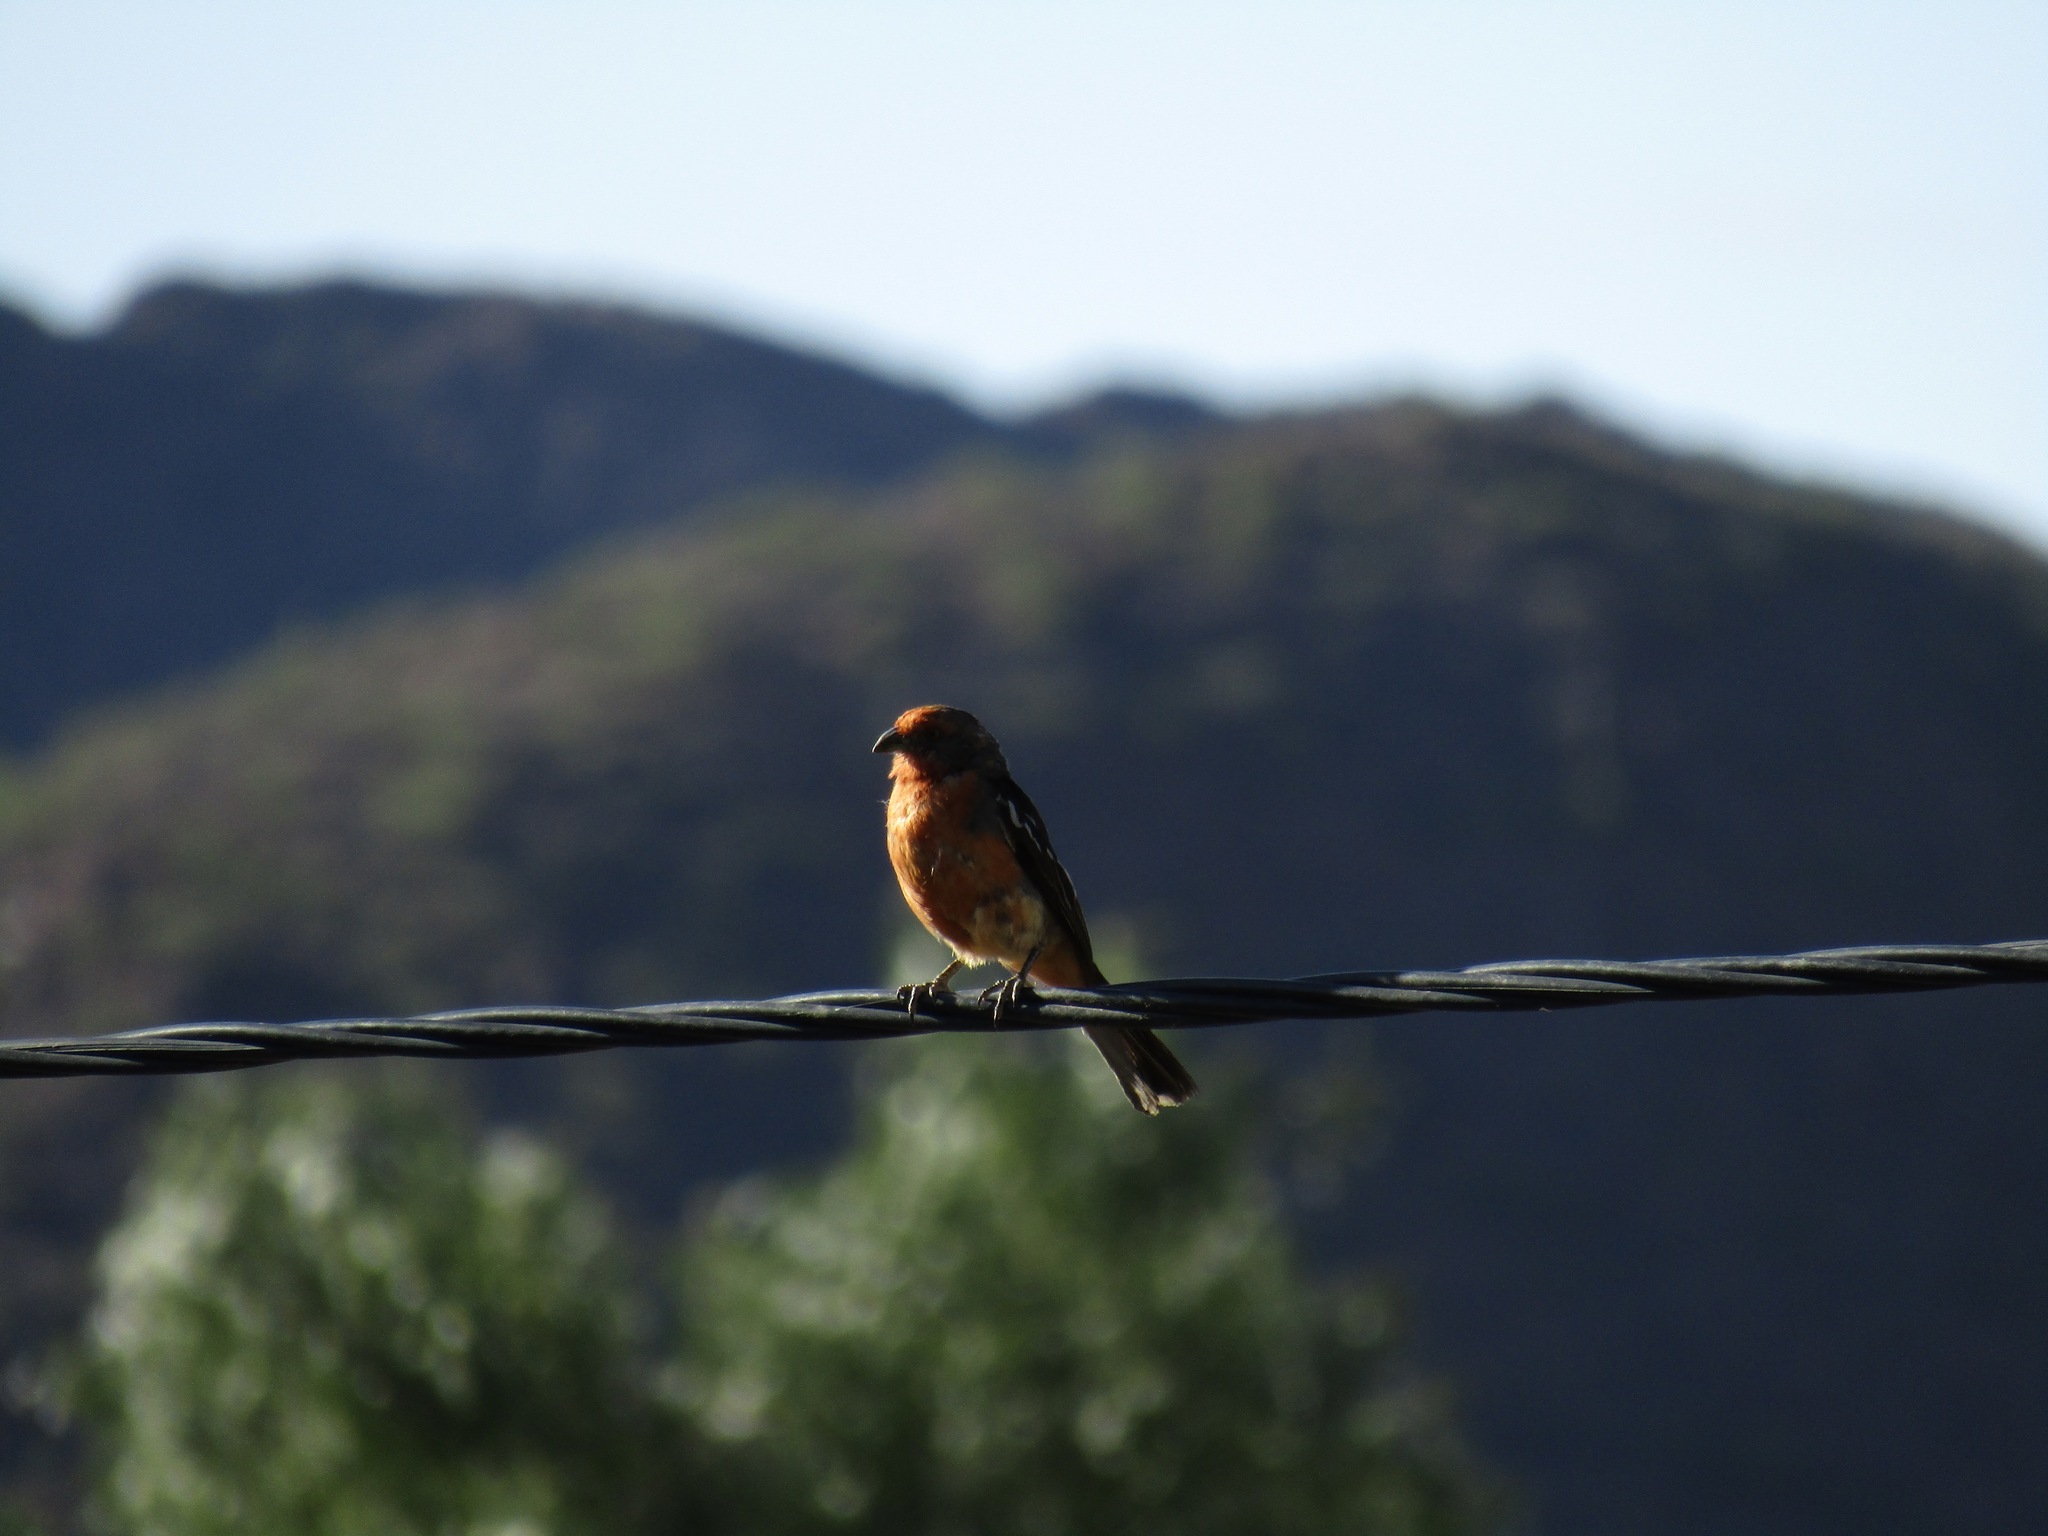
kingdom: Animalia
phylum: Chordata
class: Aves
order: Passeriformes
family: Cotingidae
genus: Phytotoma
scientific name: Phytotoma rutila
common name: White-tipped plantcutter
